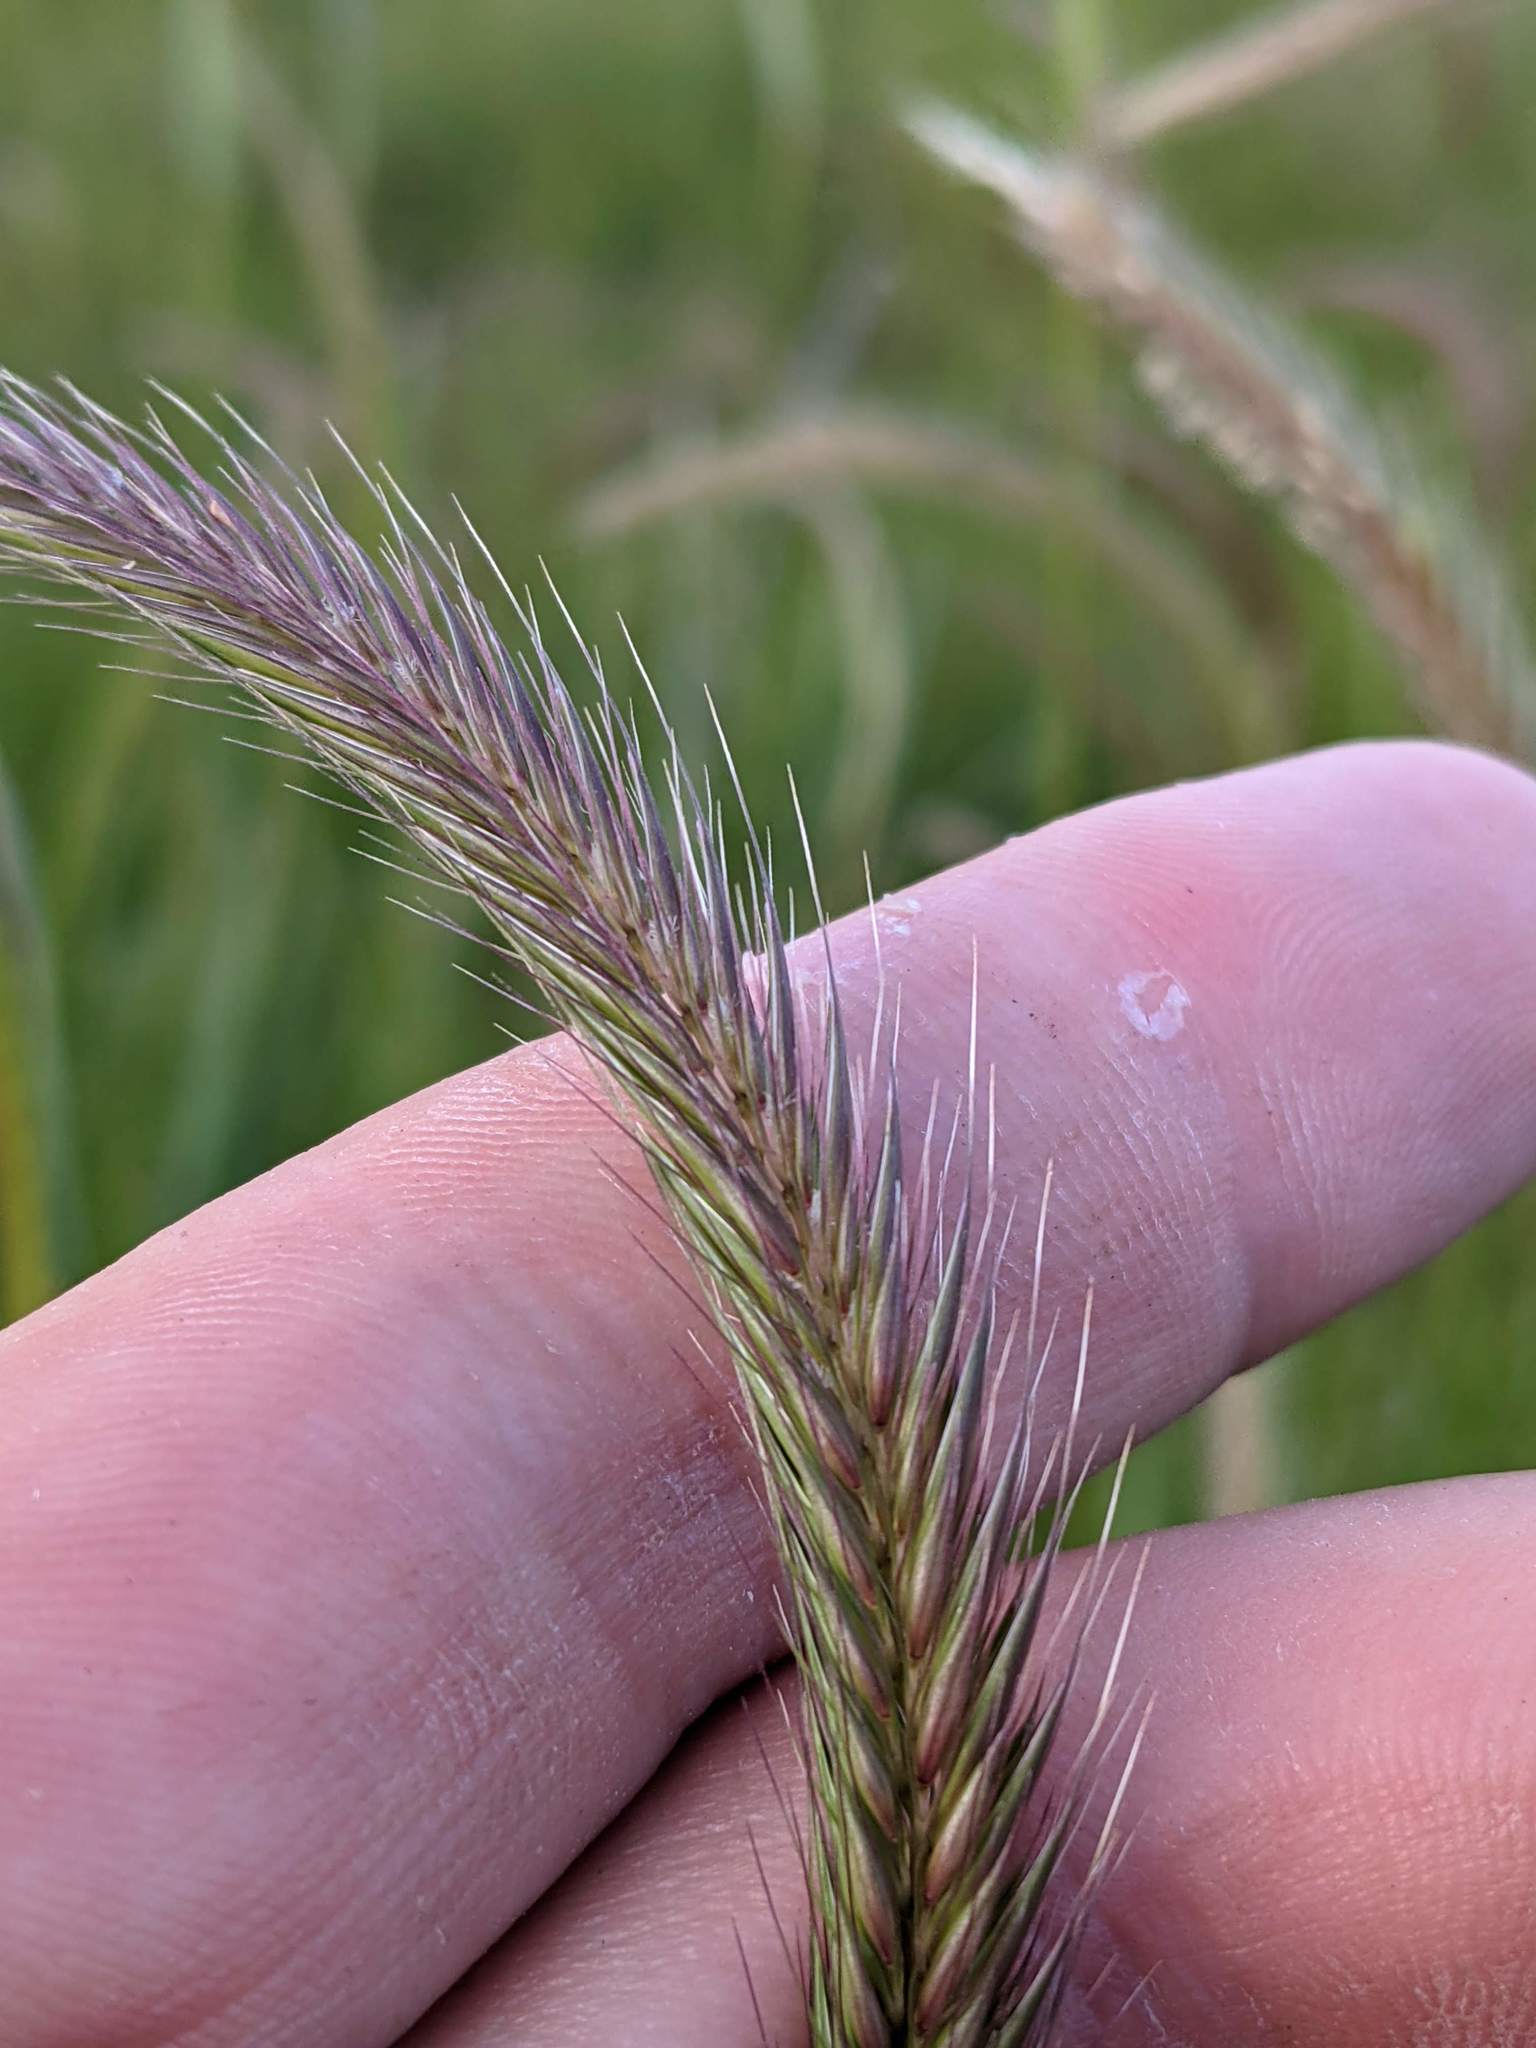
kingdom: Plantae
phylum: Tracheophyta
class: Liliopsida
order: Poales
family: Poaceae
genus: Hordeum
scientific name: Hordeum brachyantherum
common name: Meadow barley
